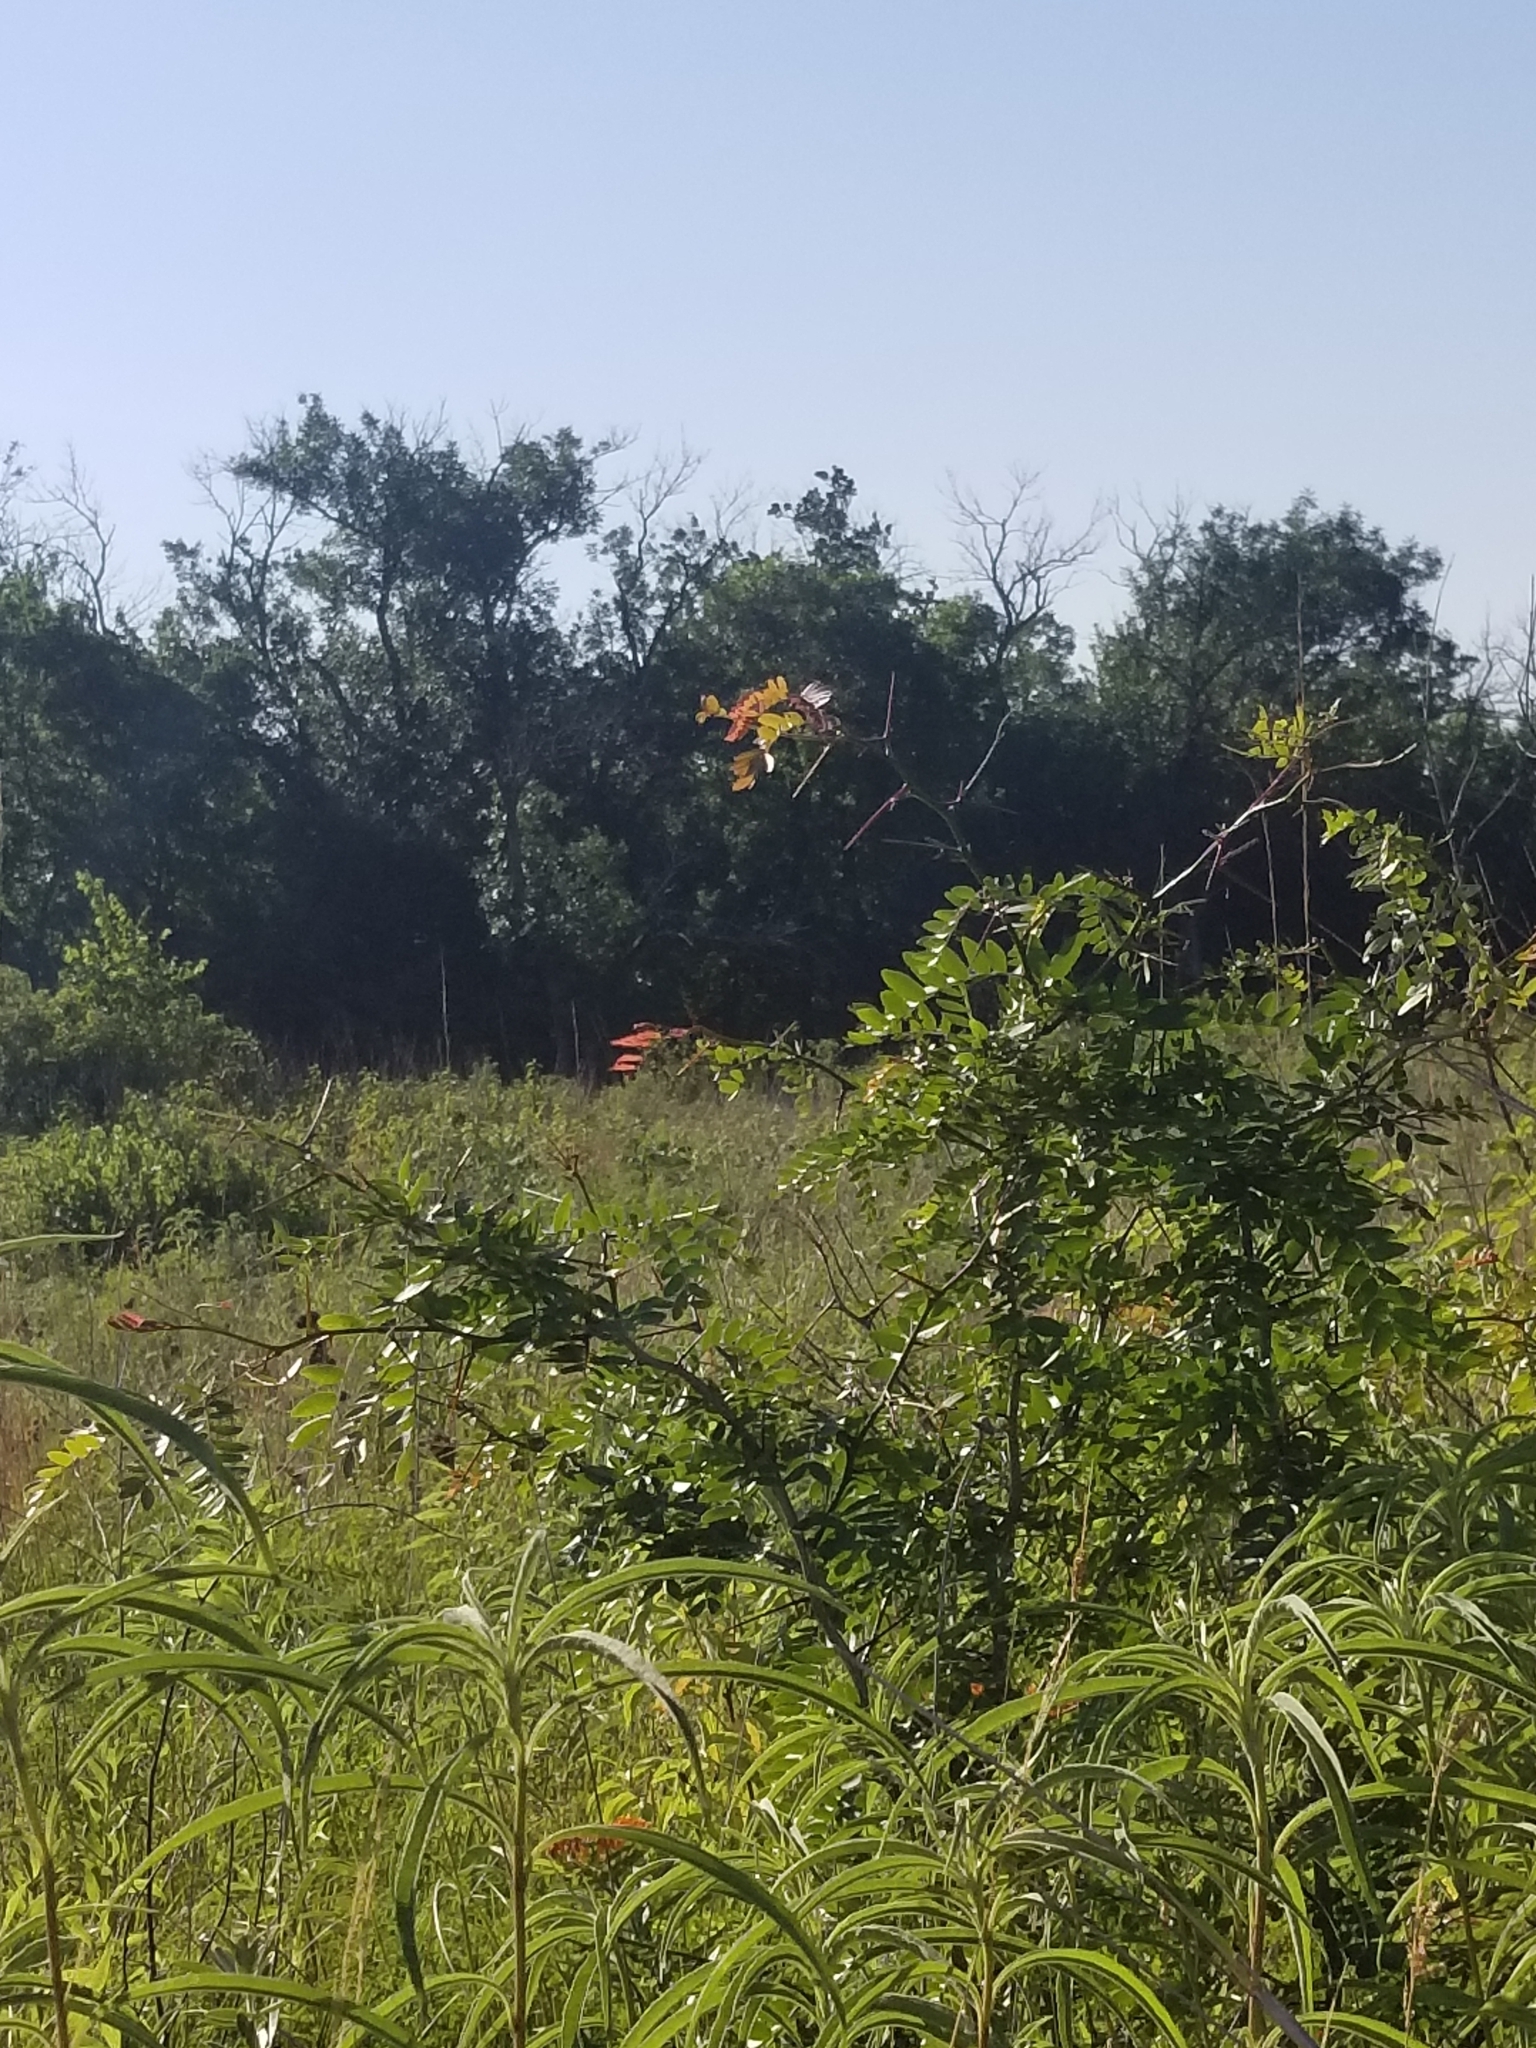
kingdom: Plantae
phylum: Tracheophyta
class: Magnoliopsida
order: Fabales
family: Fabaceae
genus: Gleditsia
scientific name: Gleditsia triacanthos
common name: Common honeylocust
